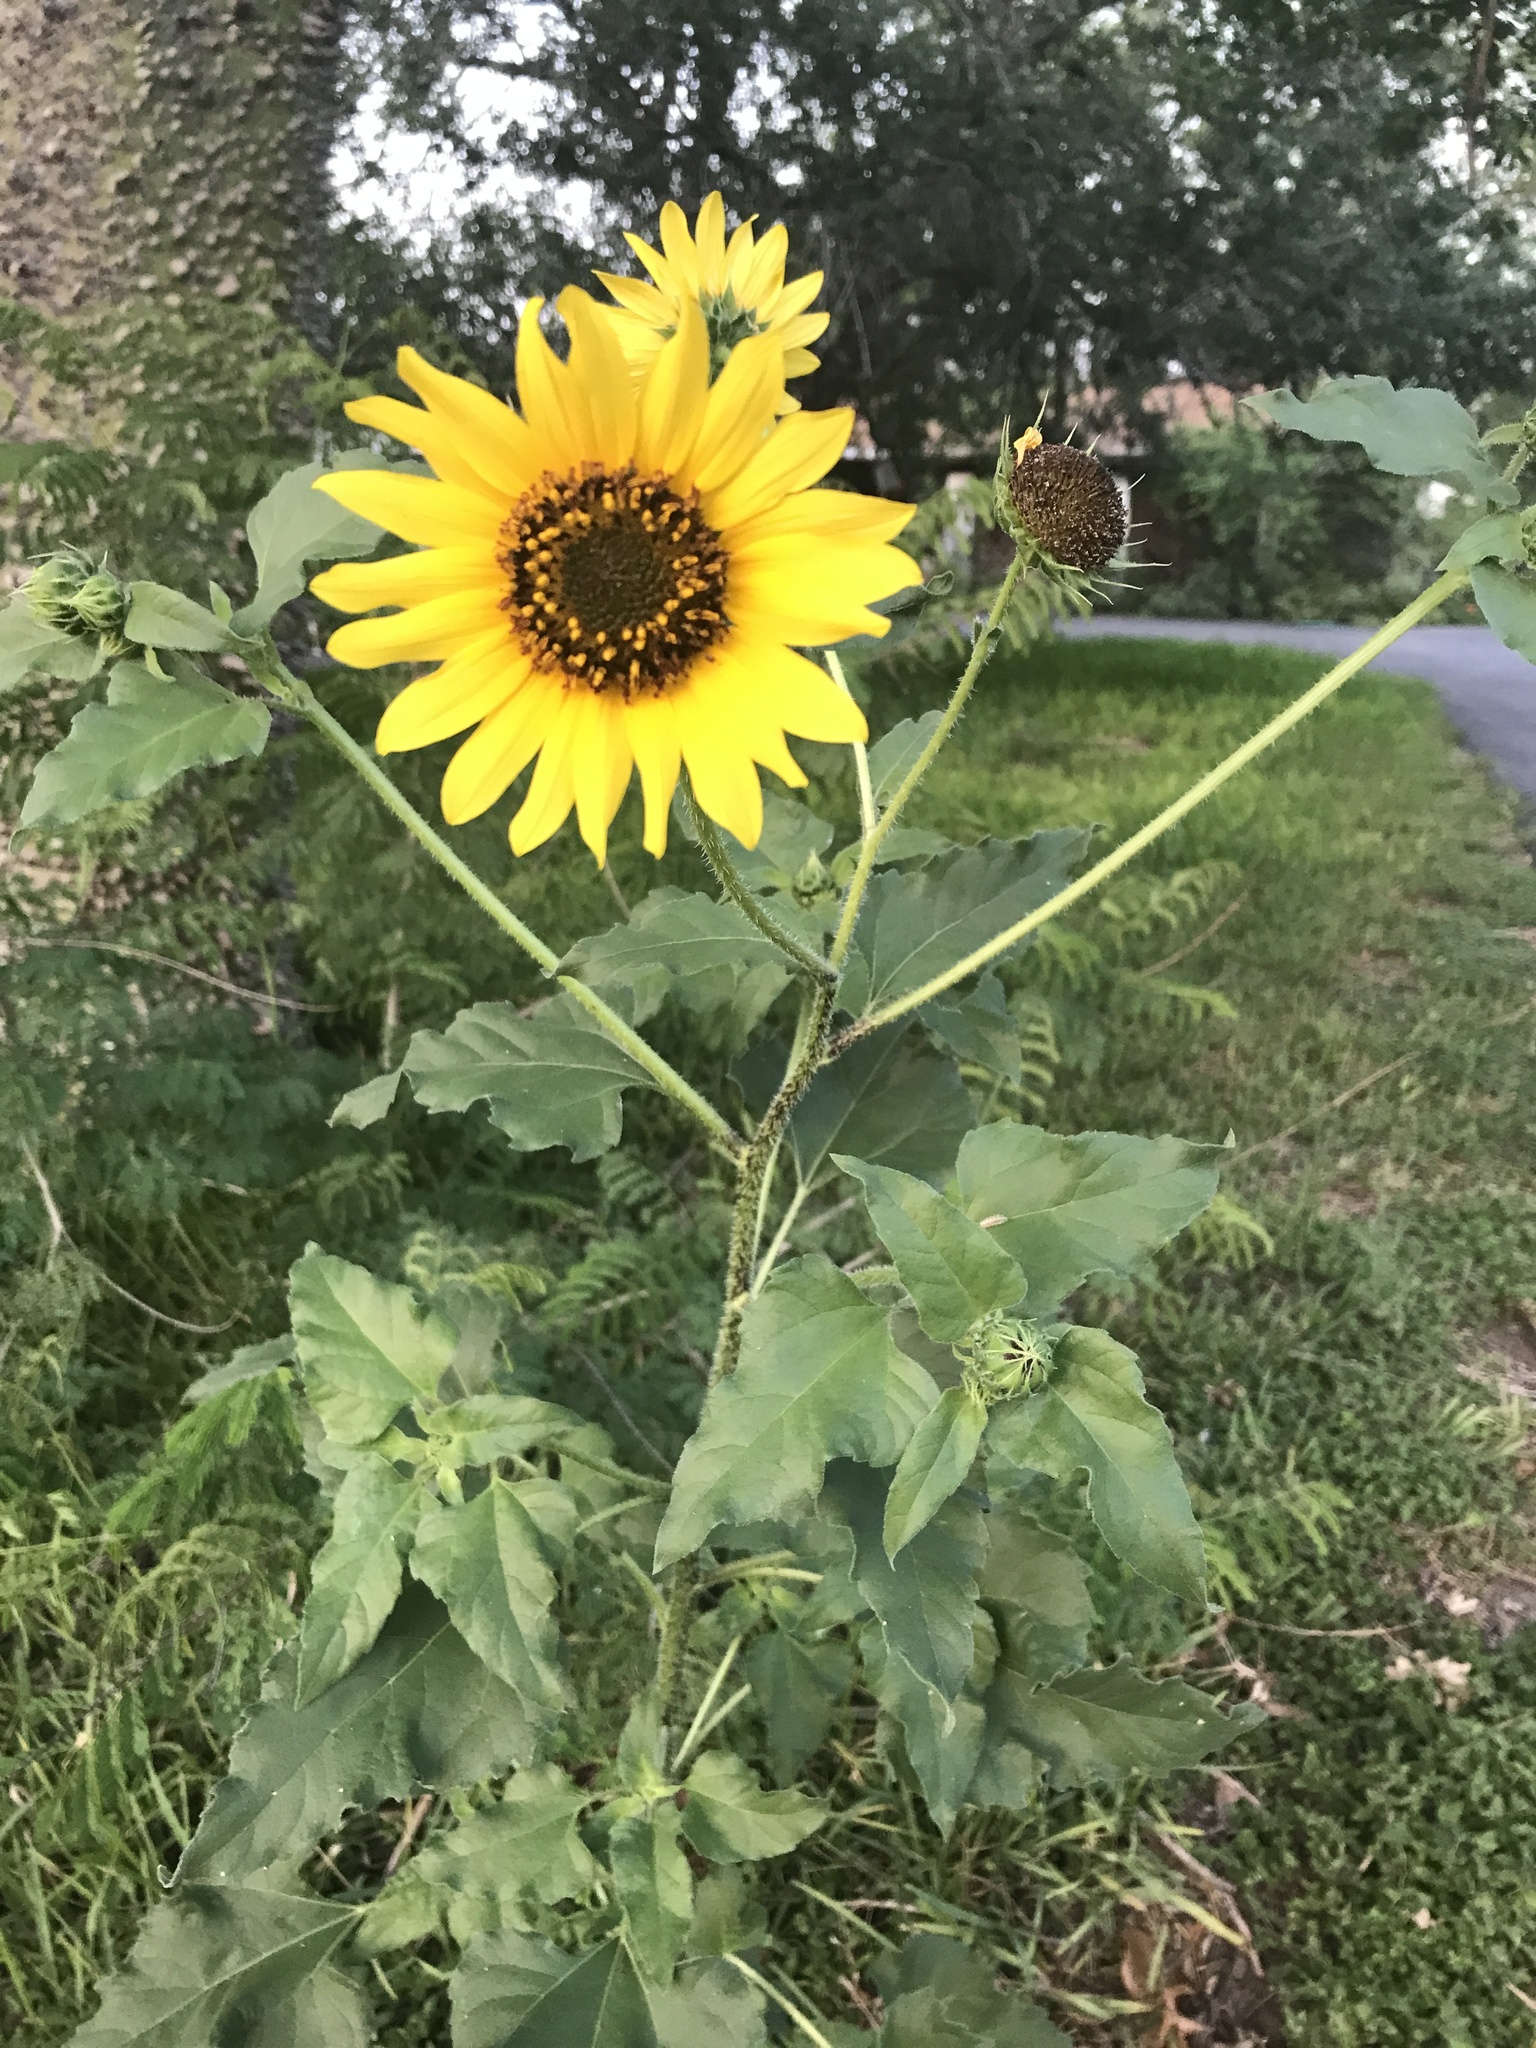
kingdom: Plantae
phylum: Tracheophyta
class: Magnoliopsida
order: Asterales
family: Asteraceae
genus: Helianthus
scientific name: Helianthus annuus
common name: Sunflower
